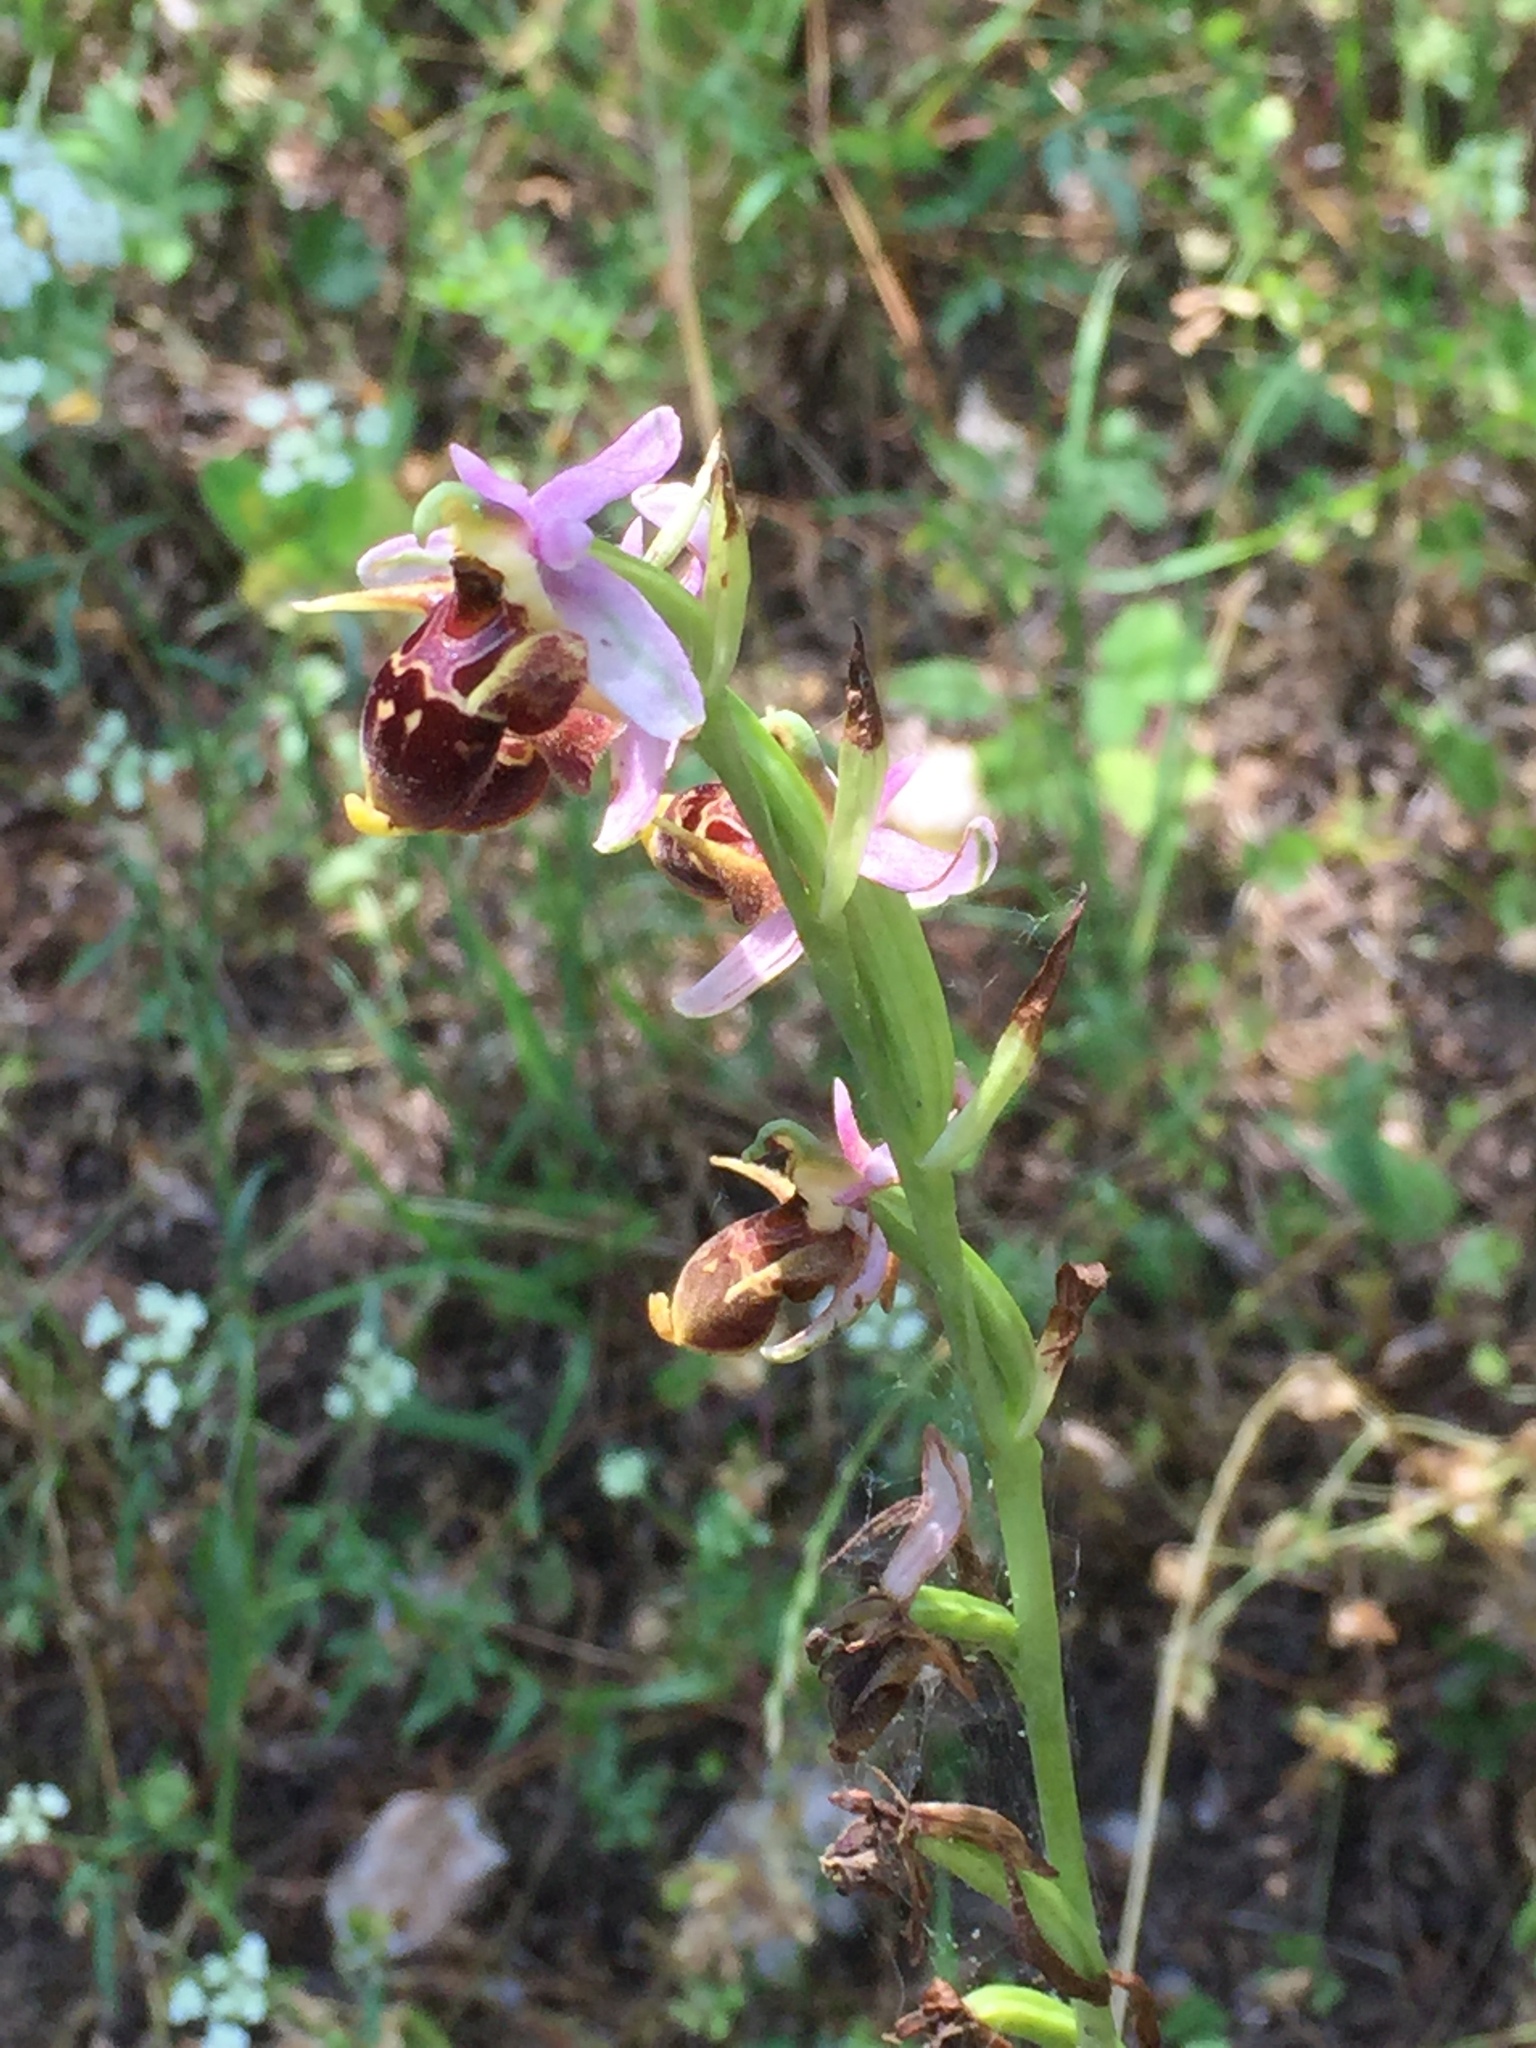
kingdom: Plantae
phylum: Tracheophyta
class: Liliopsida
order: Asparagales
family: Orchidaceae
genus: Ophrys
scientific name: Ophrys
